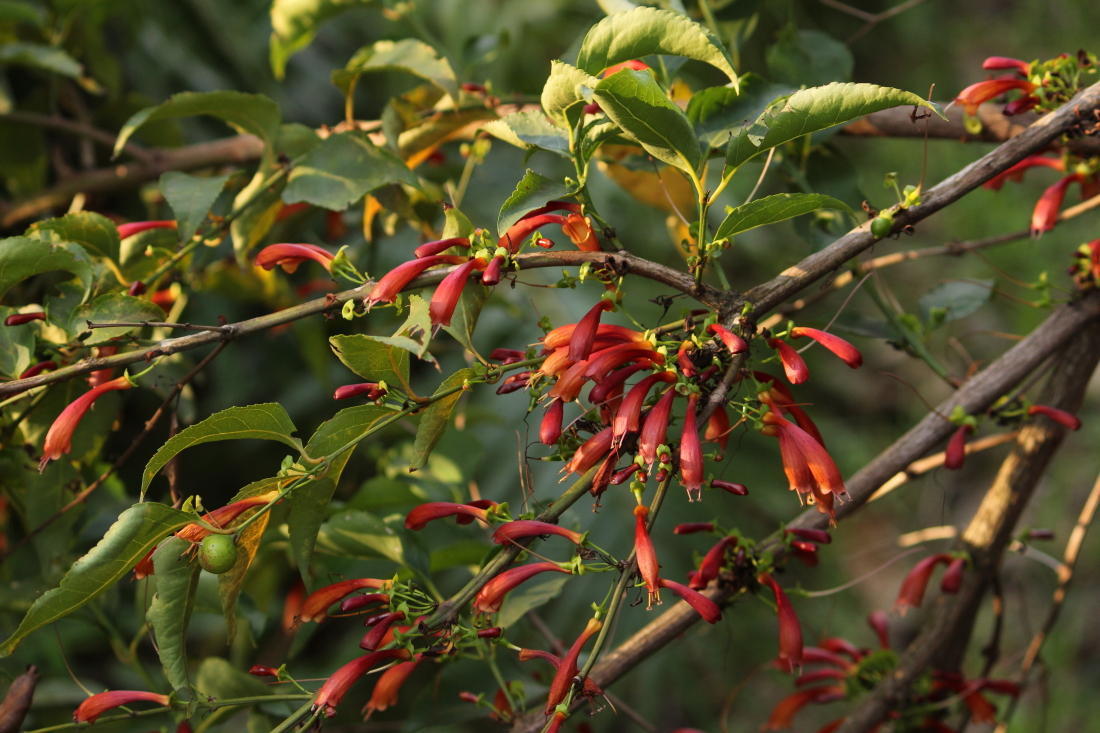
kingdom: Plantae
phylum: Tracheophyta
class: Magnoliopsida
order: Lamiales
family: Stilbaceae
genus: Halleria
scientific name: Halleria lucida
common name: Tree fuschia
